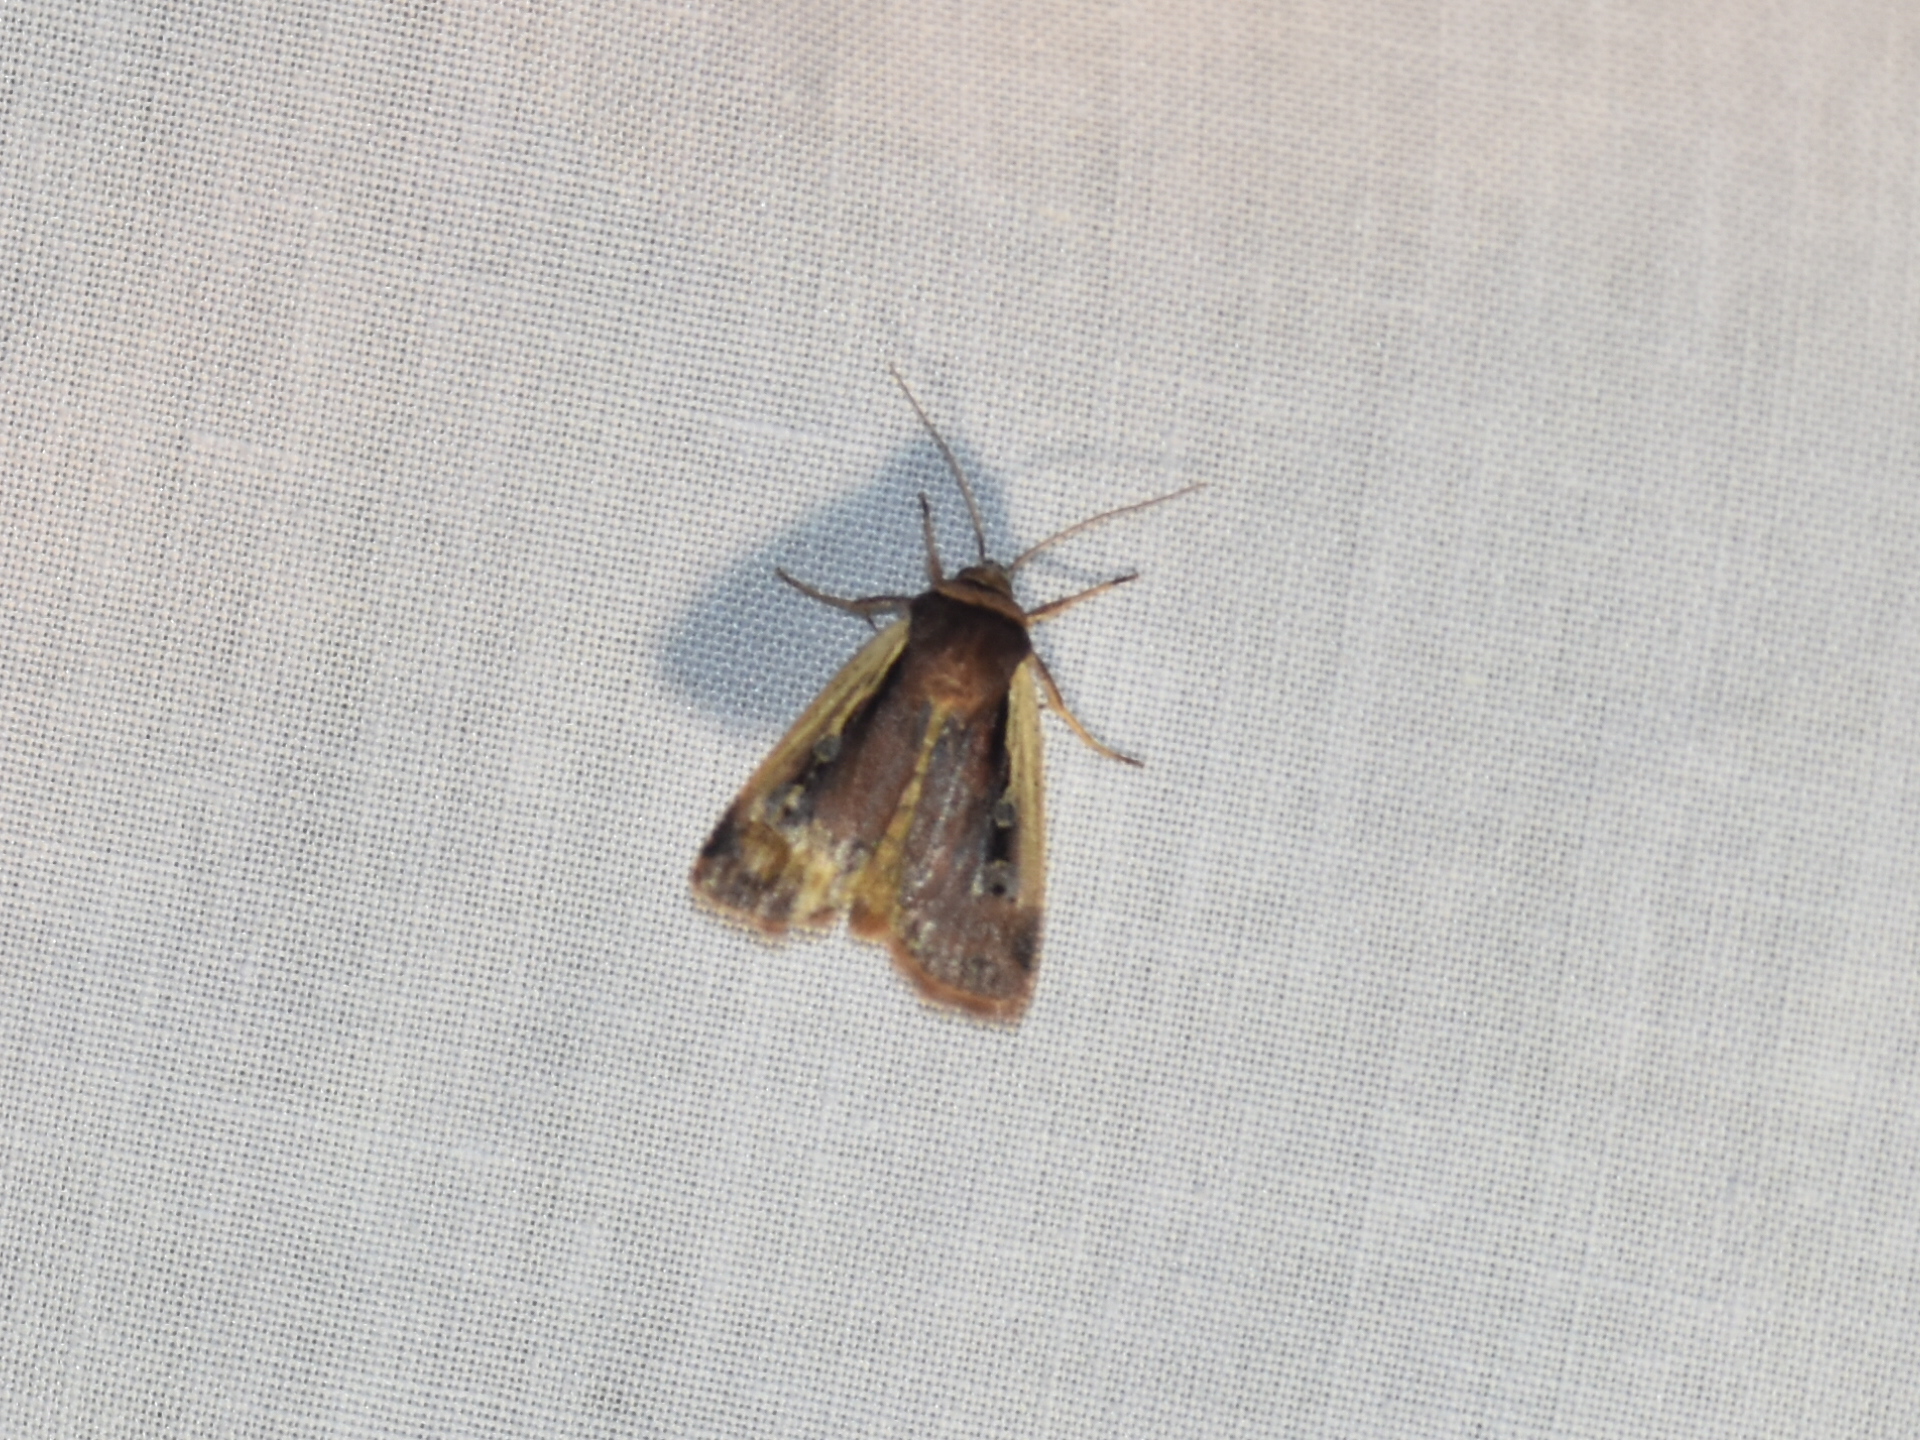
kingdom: Animalia
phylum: Arthropoda
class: Insecta
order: Lepidoptera
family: Noctuidae
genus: Ochropleura
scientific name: Ochropleura implecta
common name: Flame-shouldered dart
